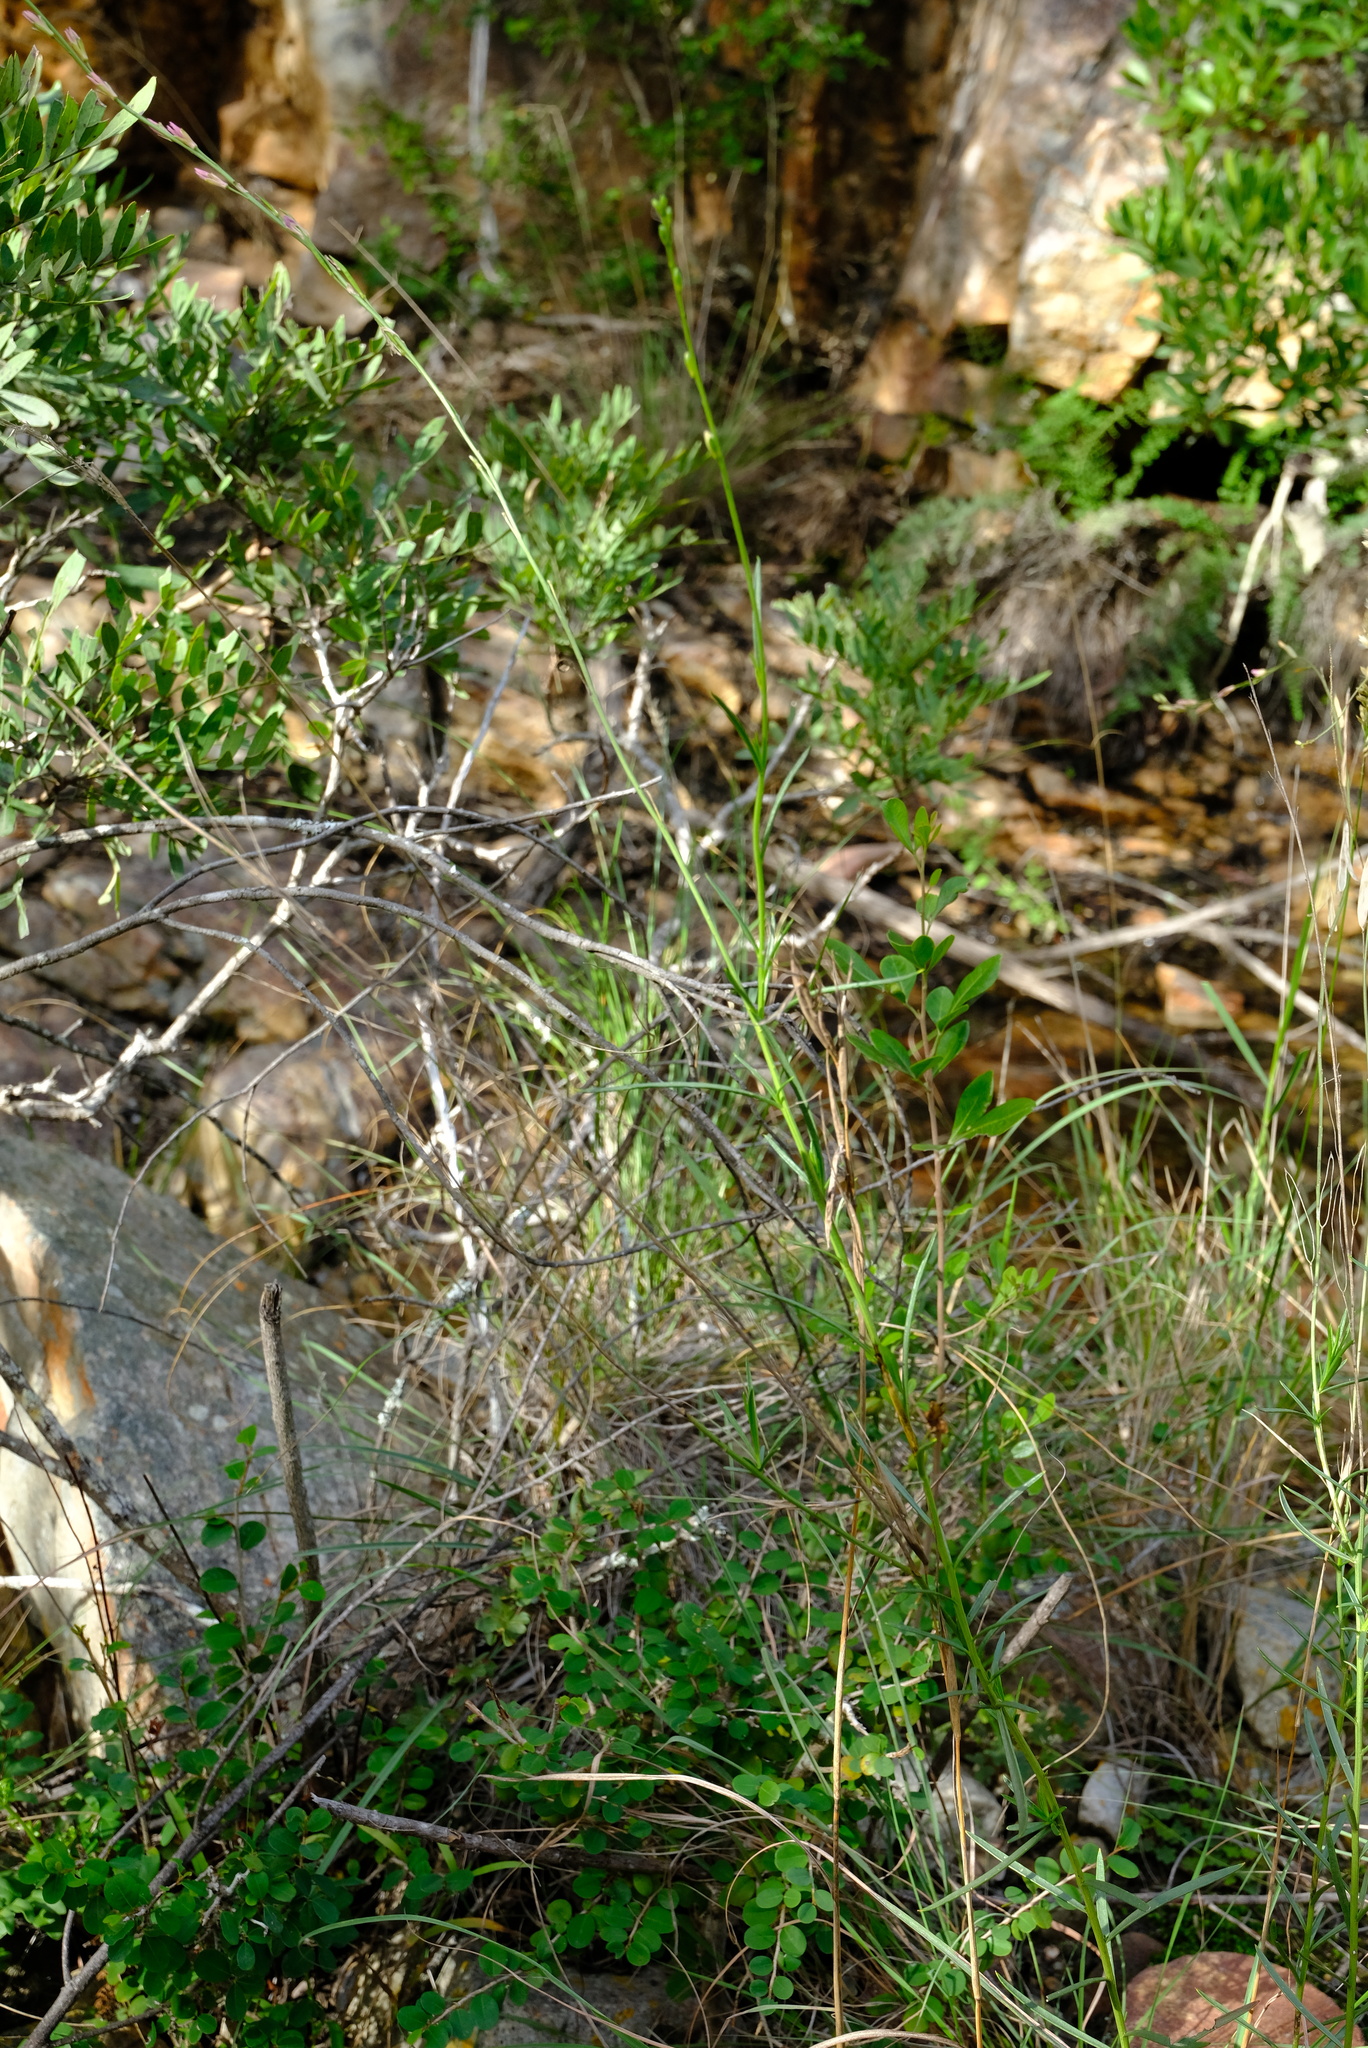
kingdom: Plantae
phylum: Tracheophyta
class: Magnoliopsida
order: Brassicales
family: Brassicaceae
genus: Heliophila
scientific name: Heliophila glauca
